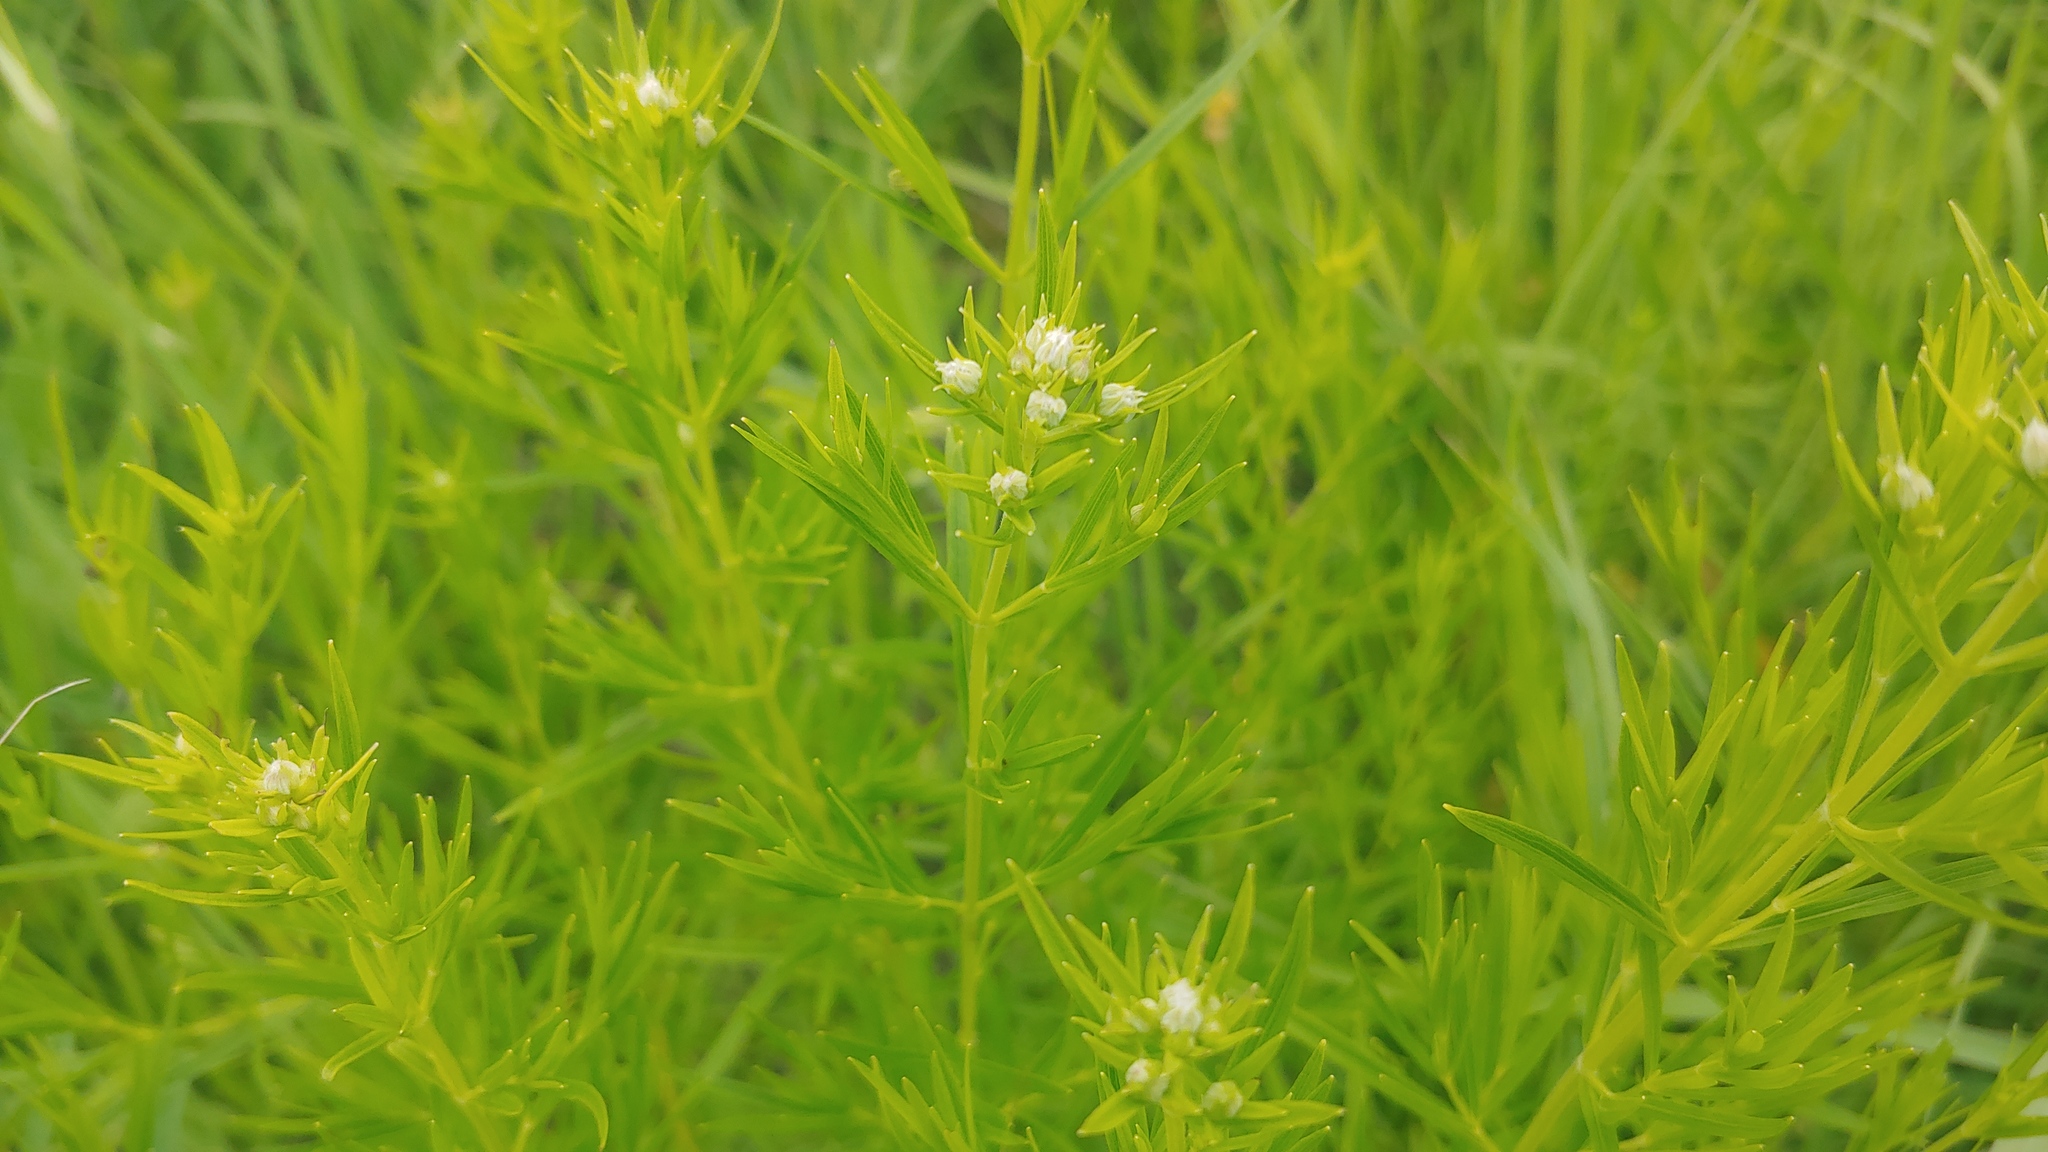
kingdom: Plantae
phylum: Tracheophyta
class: Magnoliopsida
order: Lamiales
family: Lamiaceae
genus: Pycnanthemum
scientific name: Pycnanthemum virginianum
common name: Virginia mountain-mint
